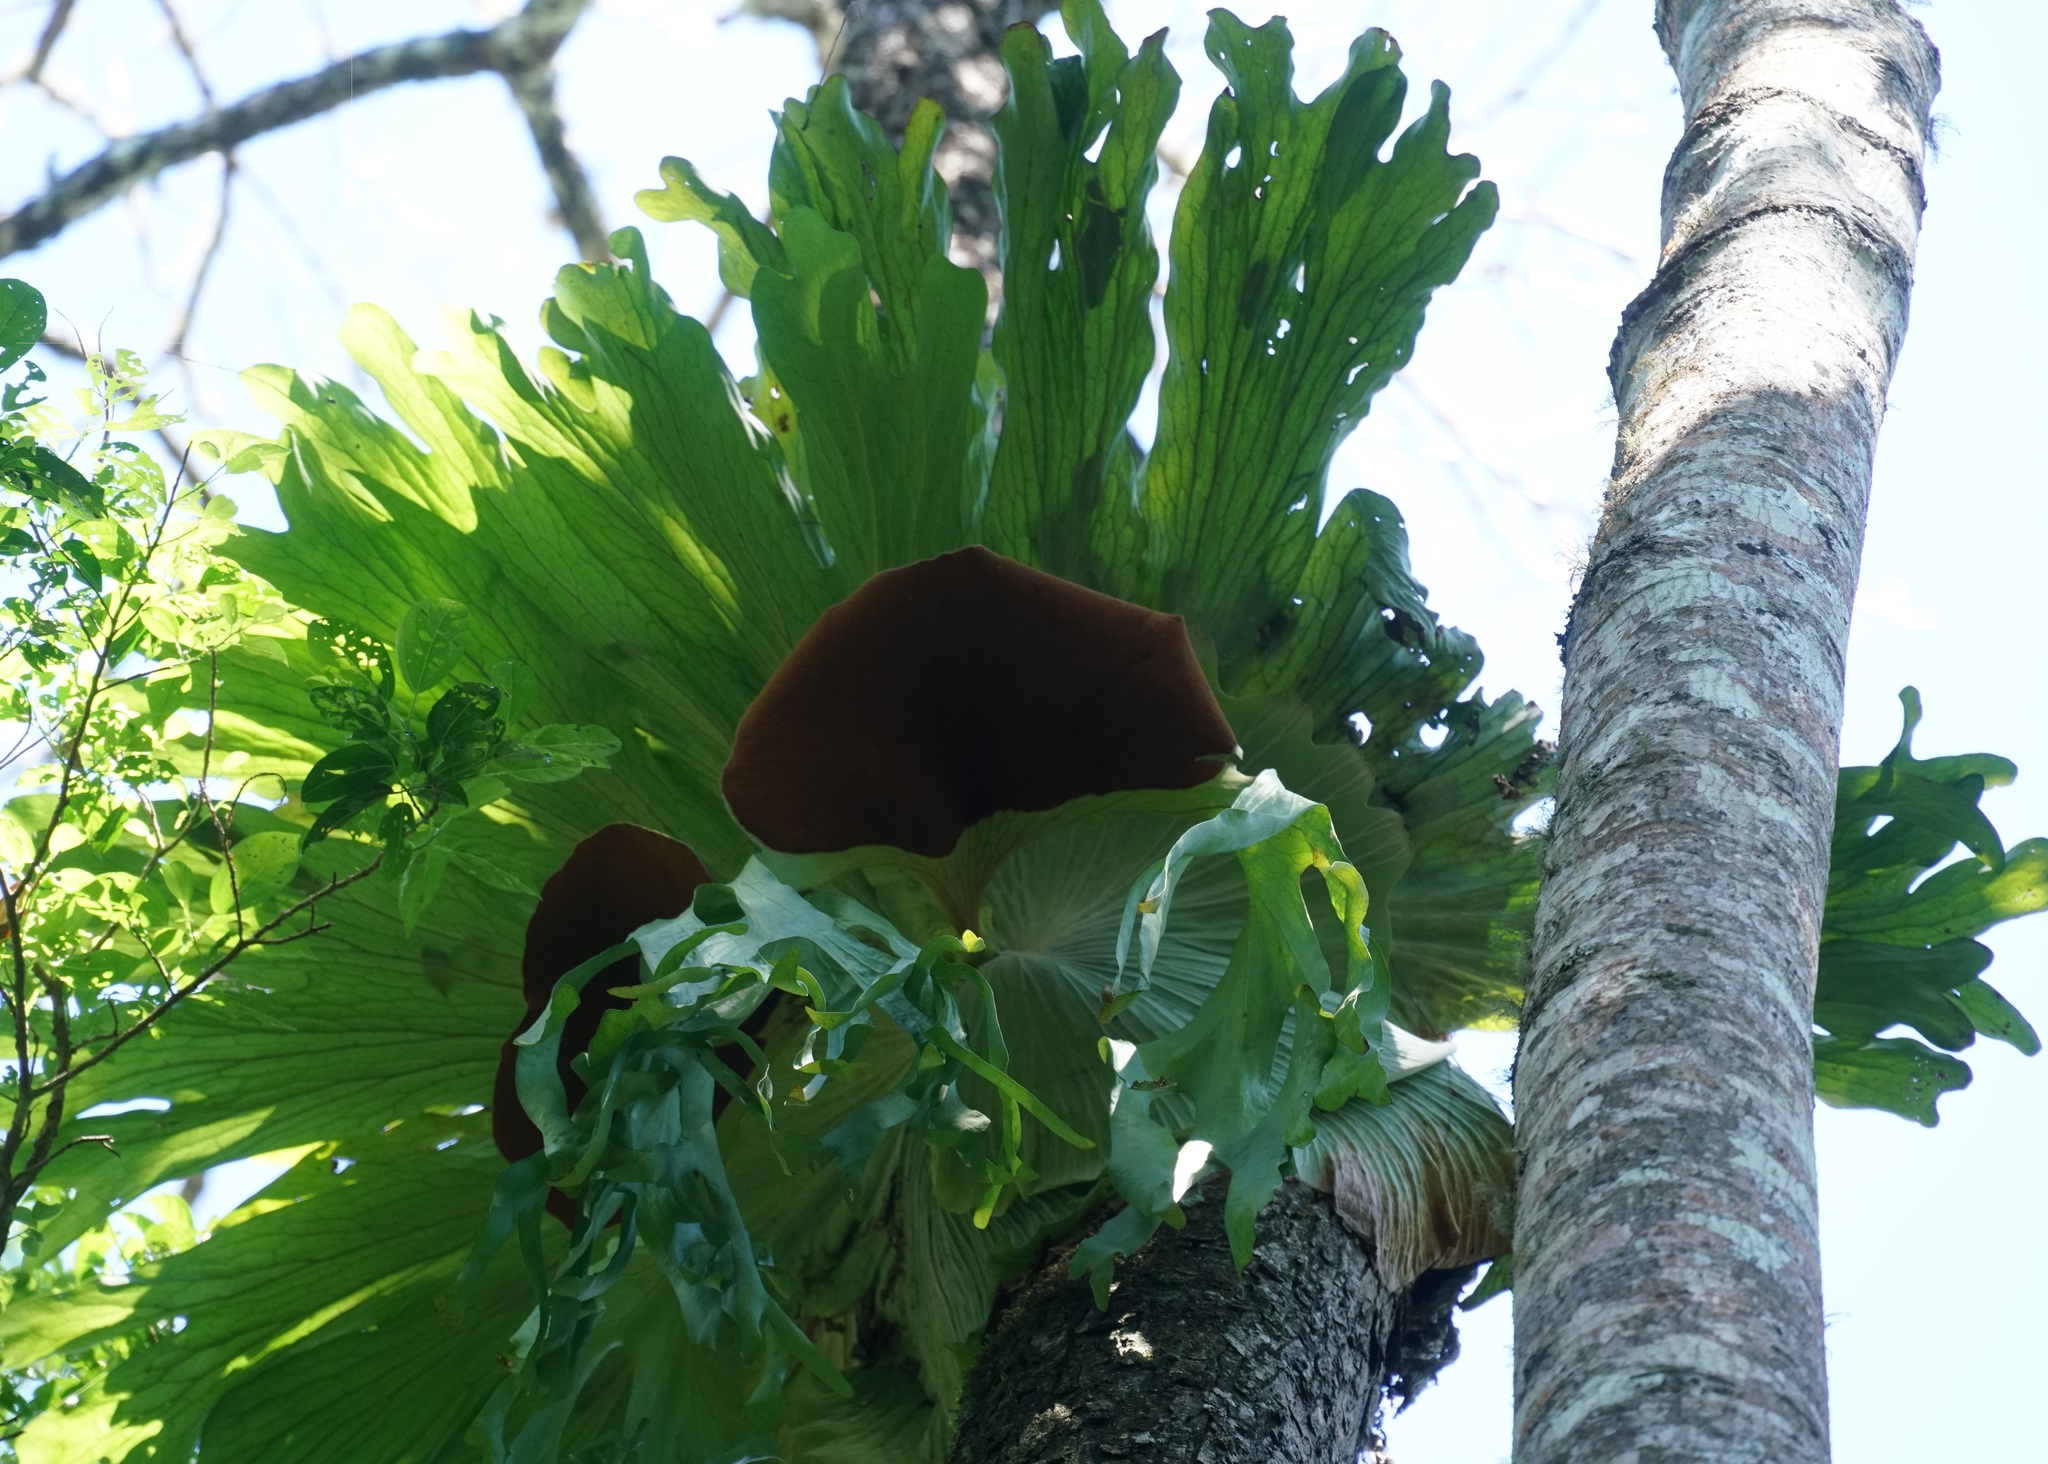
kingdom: Plantae
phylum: Tracheophyta
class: Polypodiopsida
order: Polypodiales
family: Polypodiaceae
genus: Platycerium
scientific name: Platycerium superbum
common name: Staghorn fern
